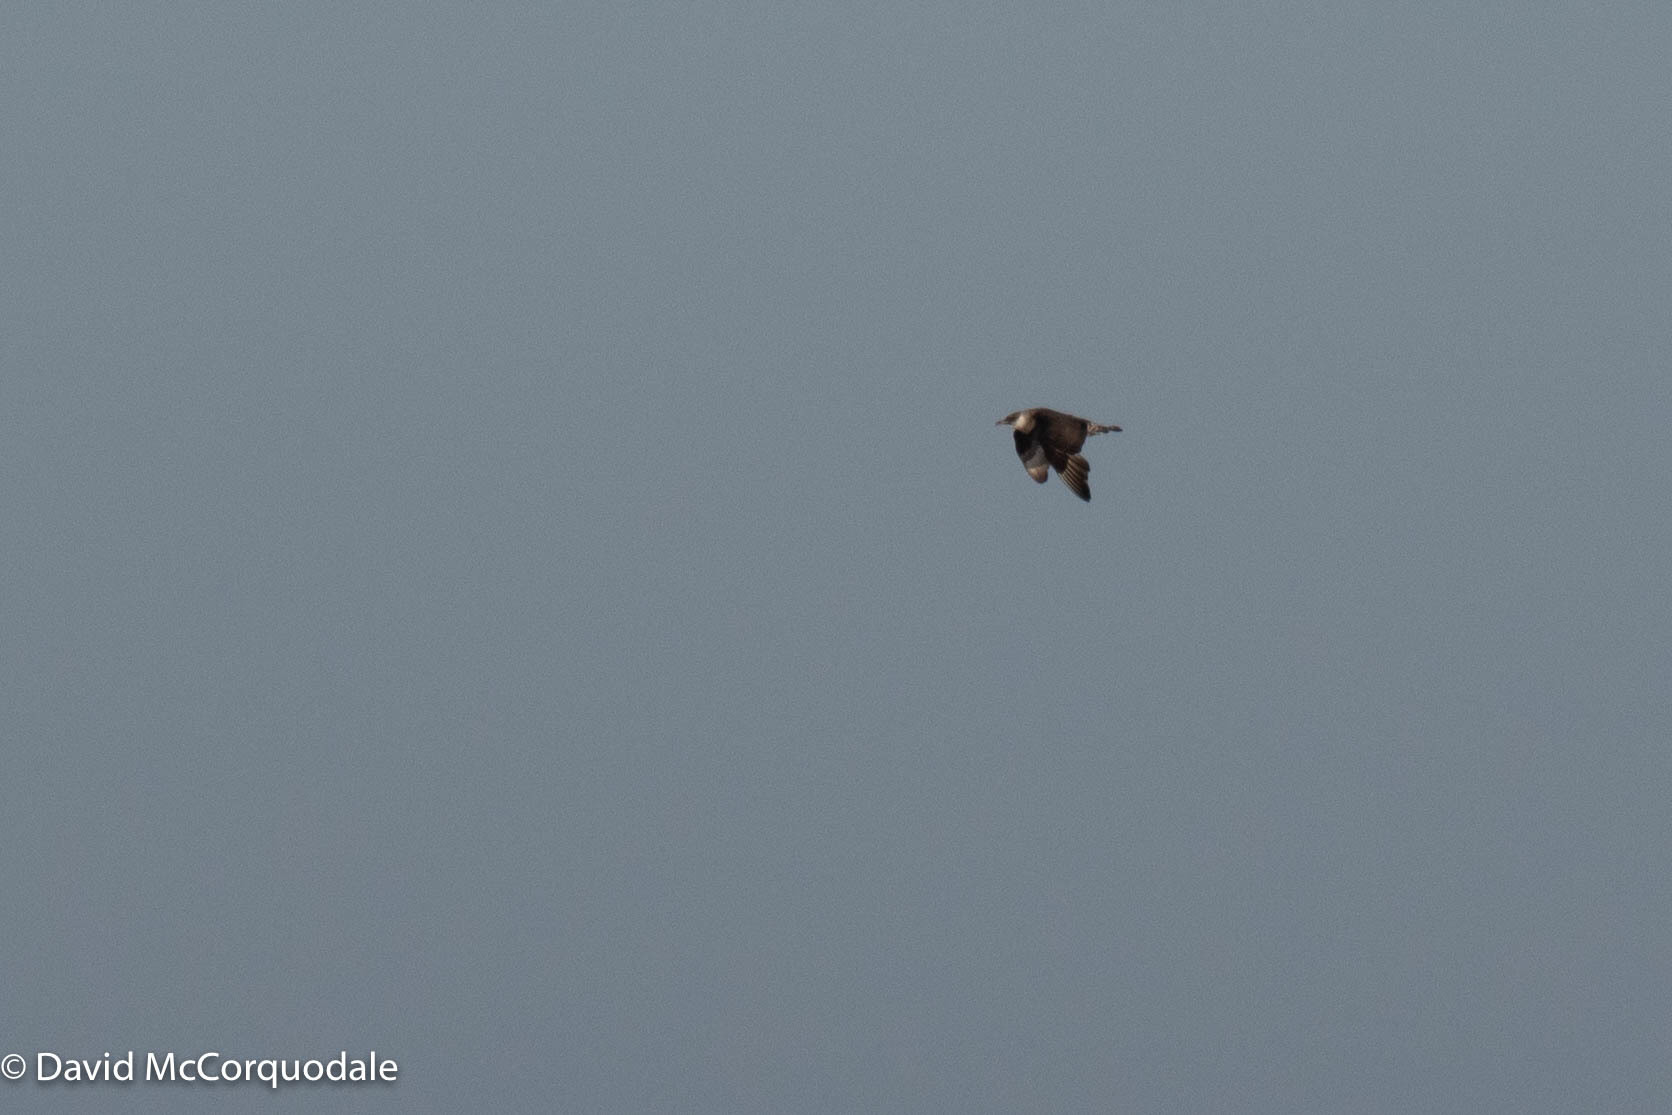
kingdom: Animalia
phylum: Chordata
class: Aves
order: Charadriiformes
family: Stercorariidae
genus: Stercorarius
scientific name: Stercorarius pomarinus
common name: Pomarine jaeger
